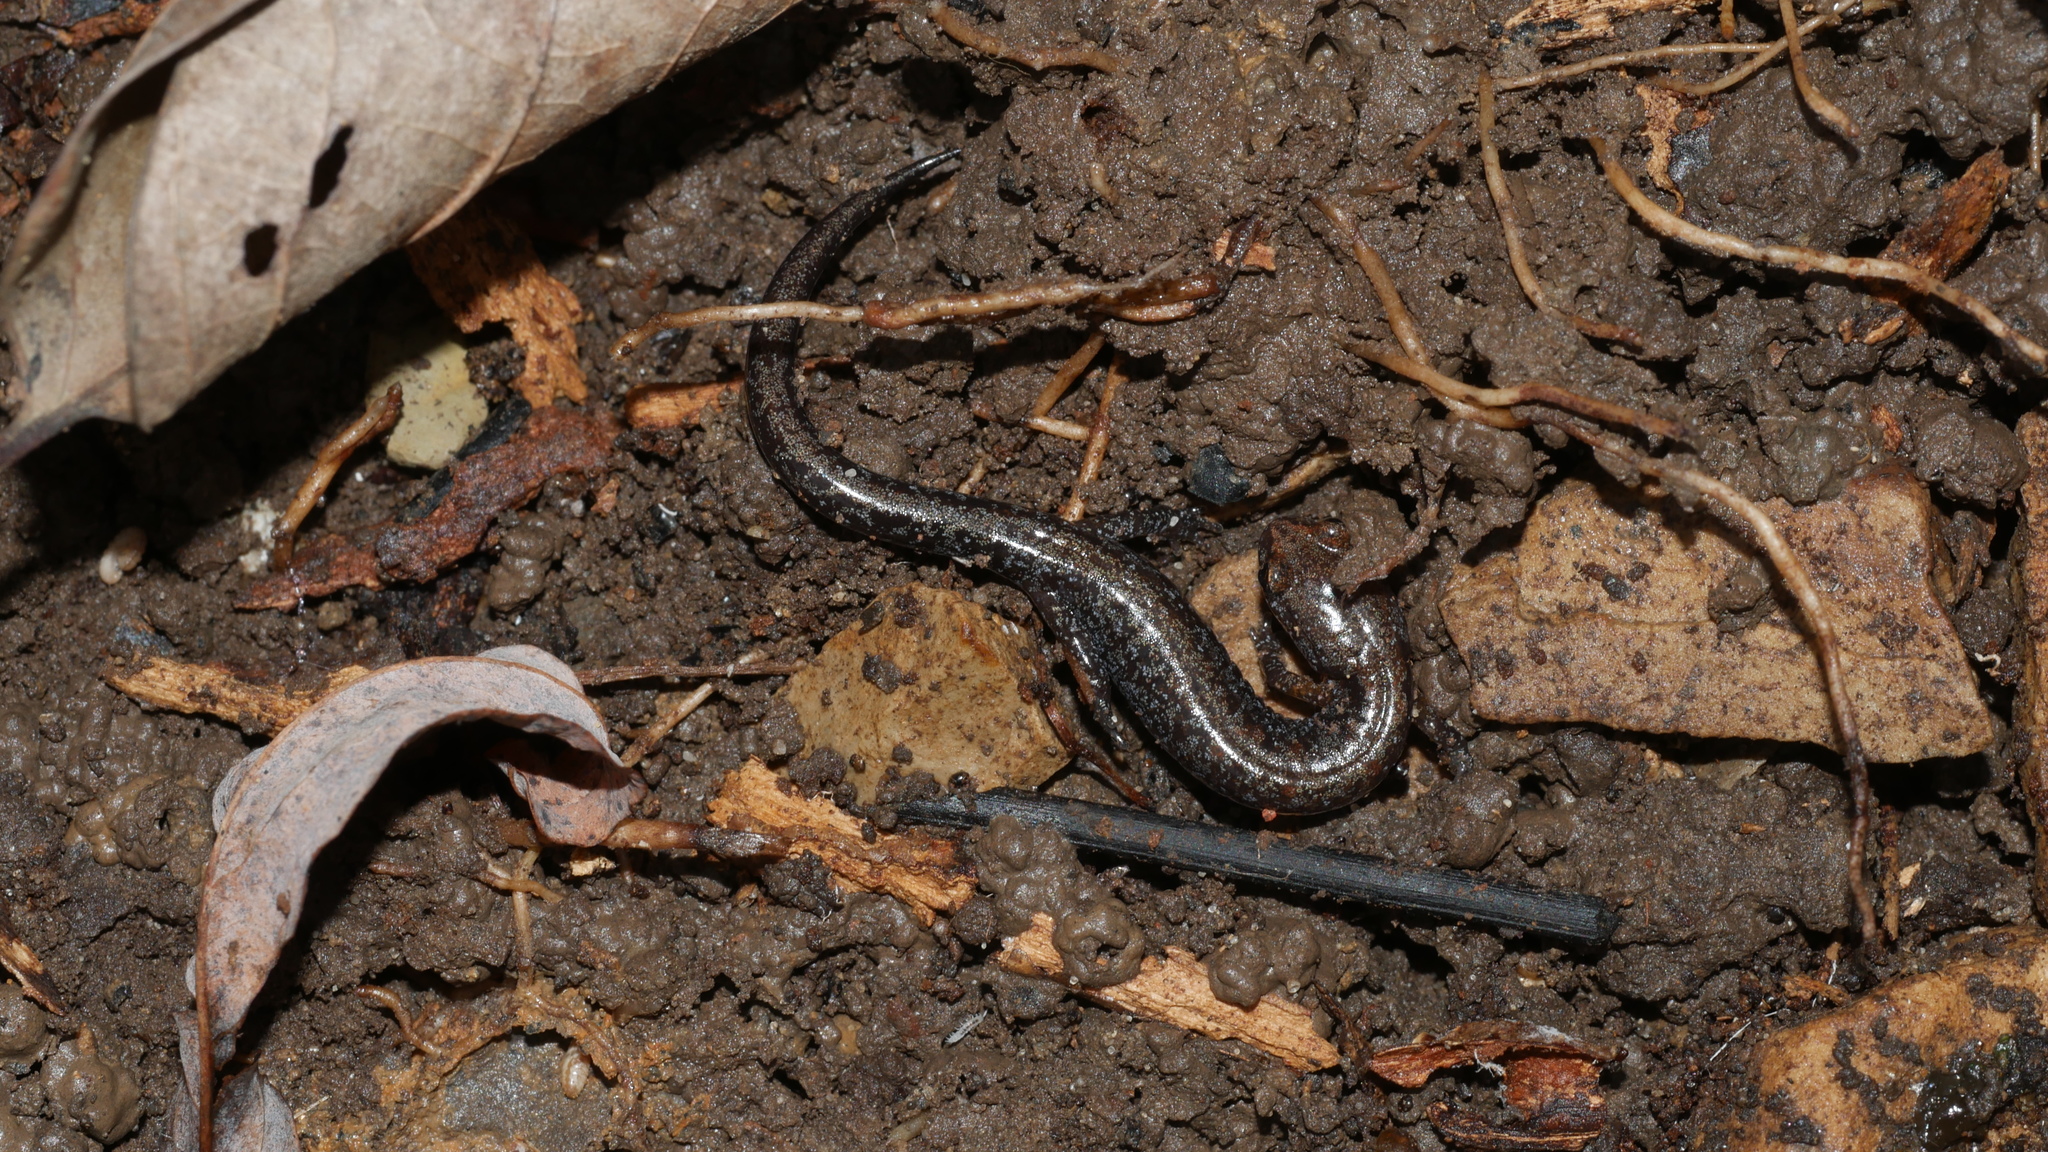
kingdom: Animalia
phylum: Chordata
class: Amphibia
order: Caudata
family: Plethodontidae
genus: Plethodon
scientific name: Plethodon
